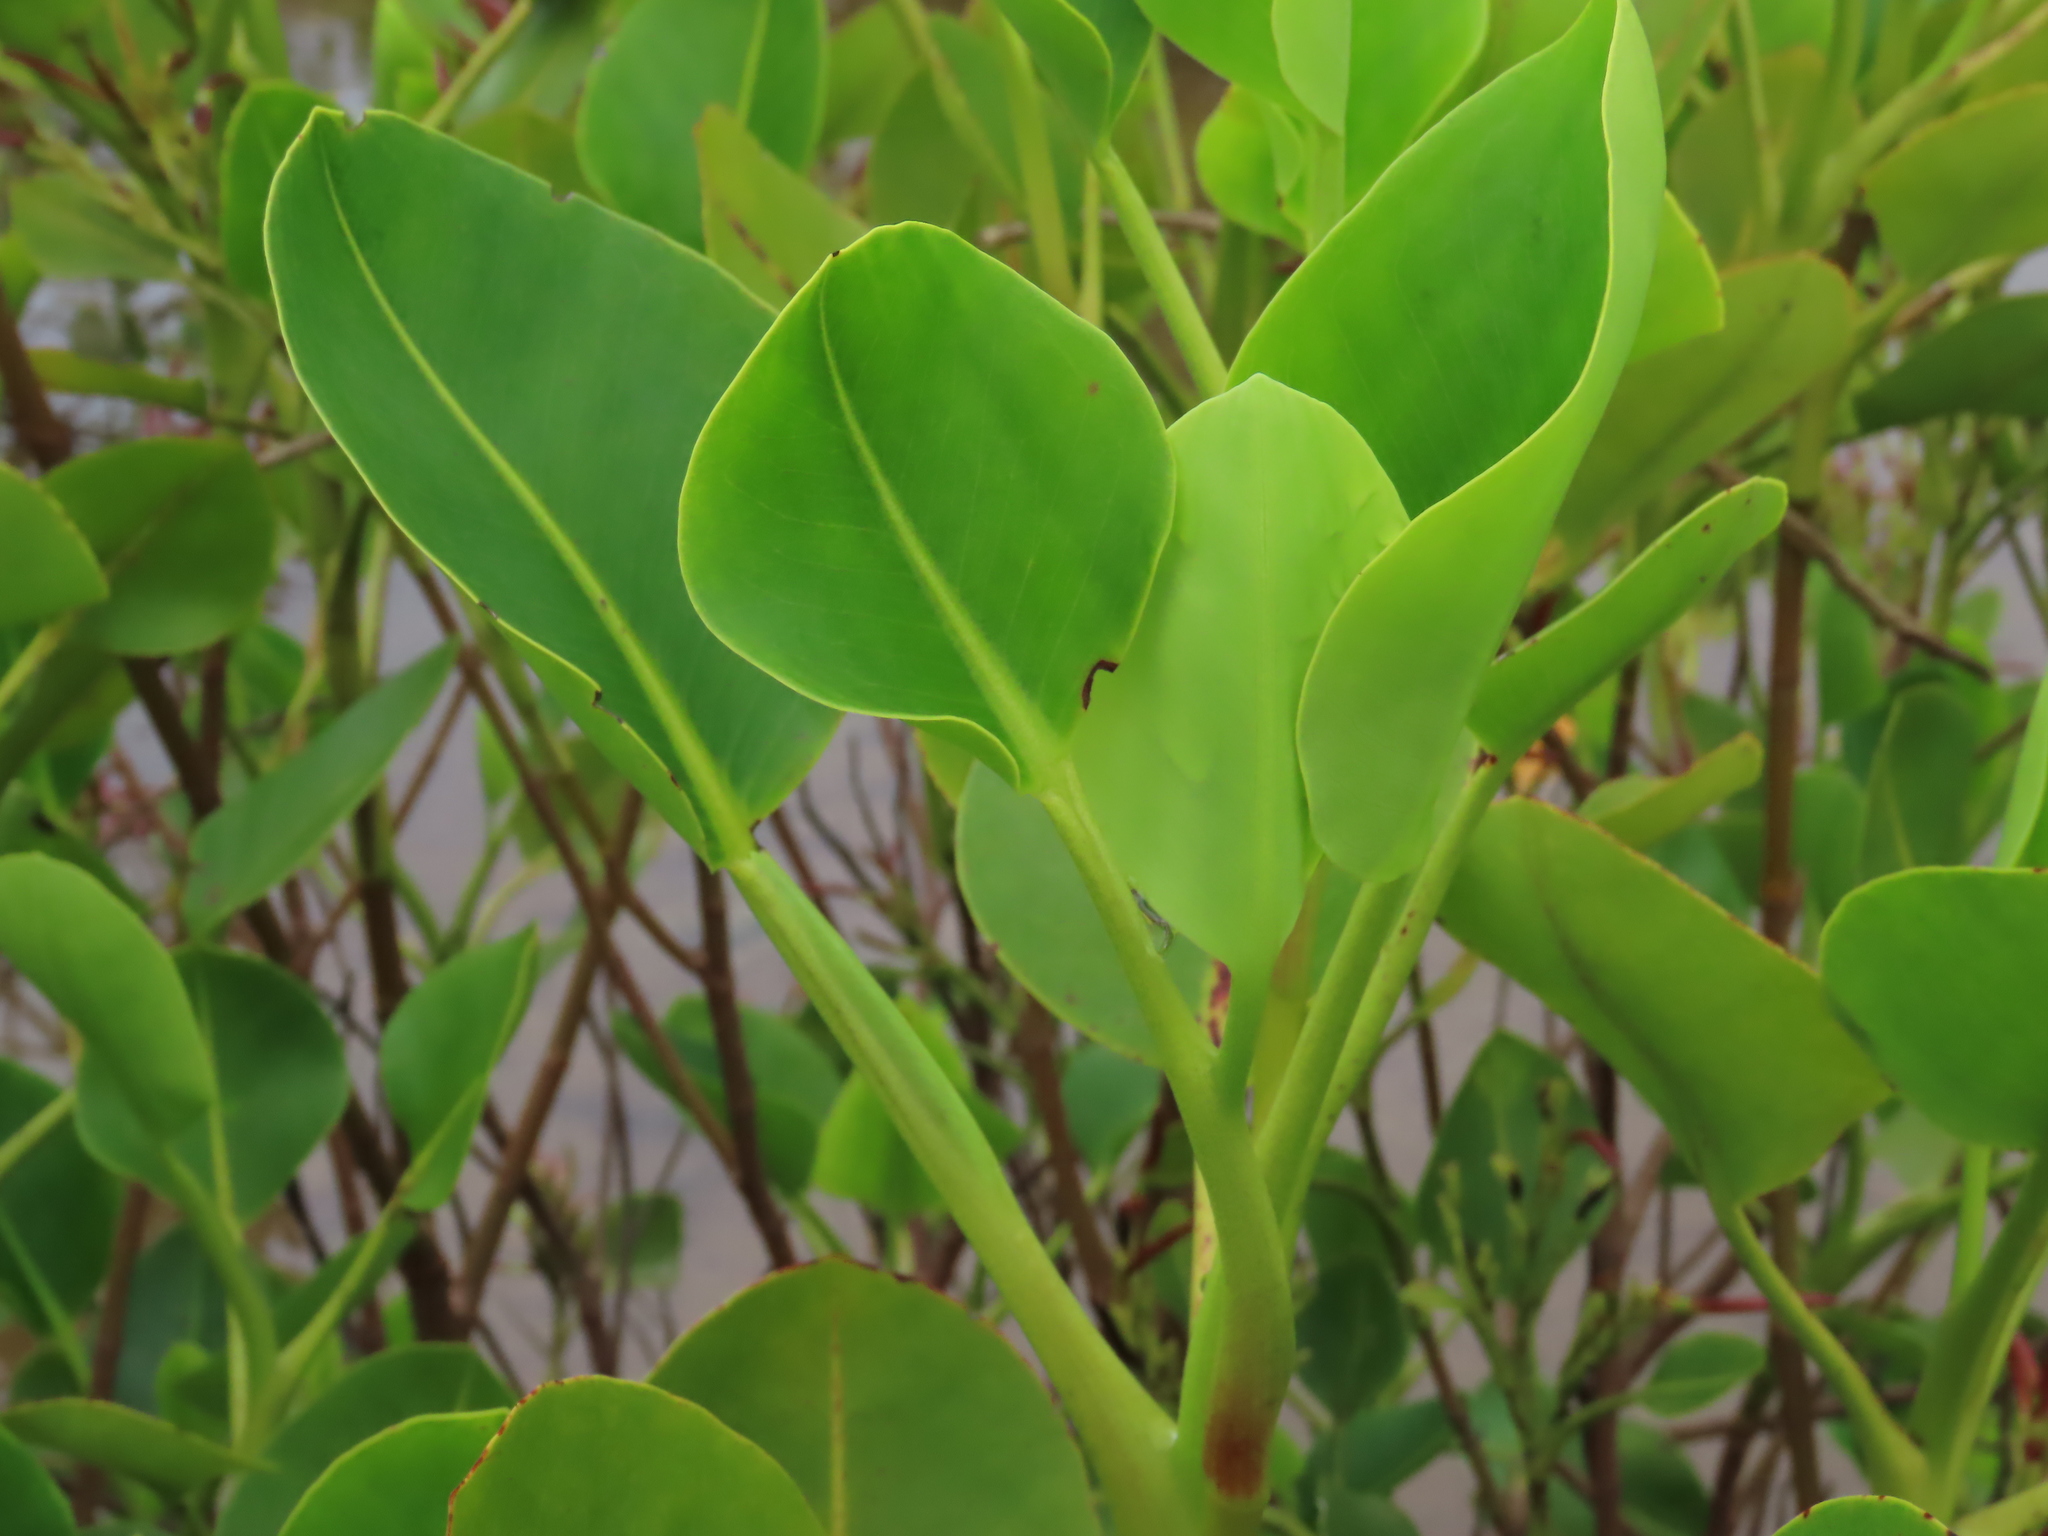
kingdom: Plantae
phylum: Tracheophyta
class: Magnoliopsida
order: Caryophyllales
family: Plumbaginaceae
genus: Aegialitis
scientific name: Aegialitis annulata
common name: Club mangrove
